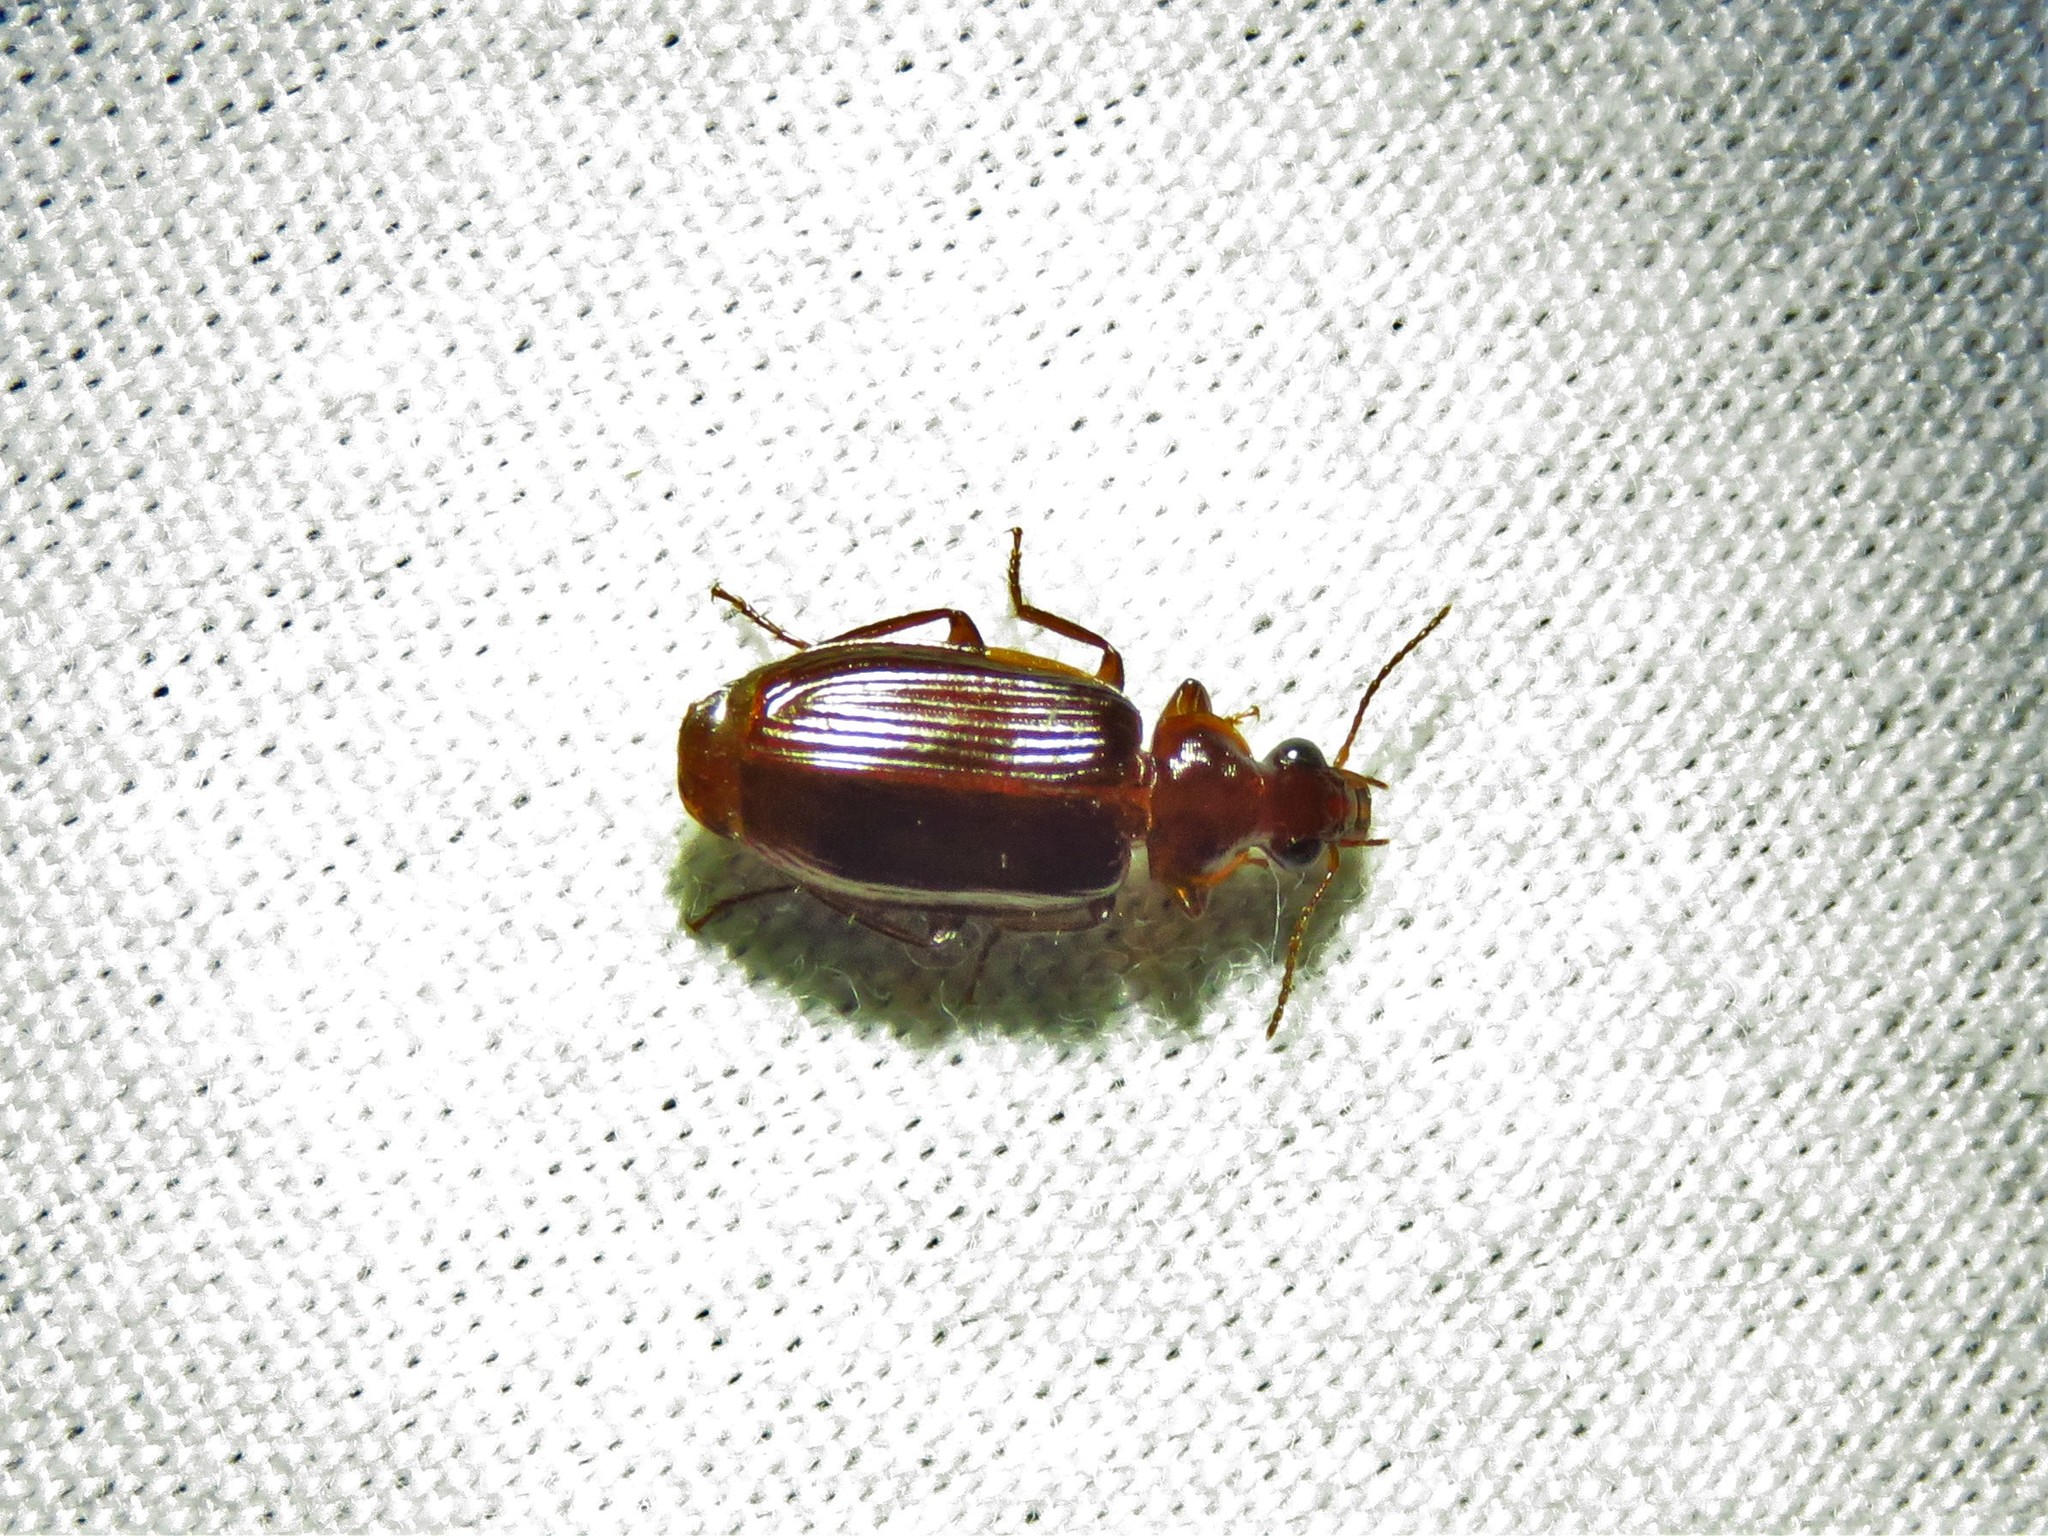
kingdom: Animalia
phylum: Arthropoda
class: Insecta
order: Coleoptera
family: Carabidae
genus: Plochionus
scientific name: Plochionus timidus
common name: Timid harp ground beetle
